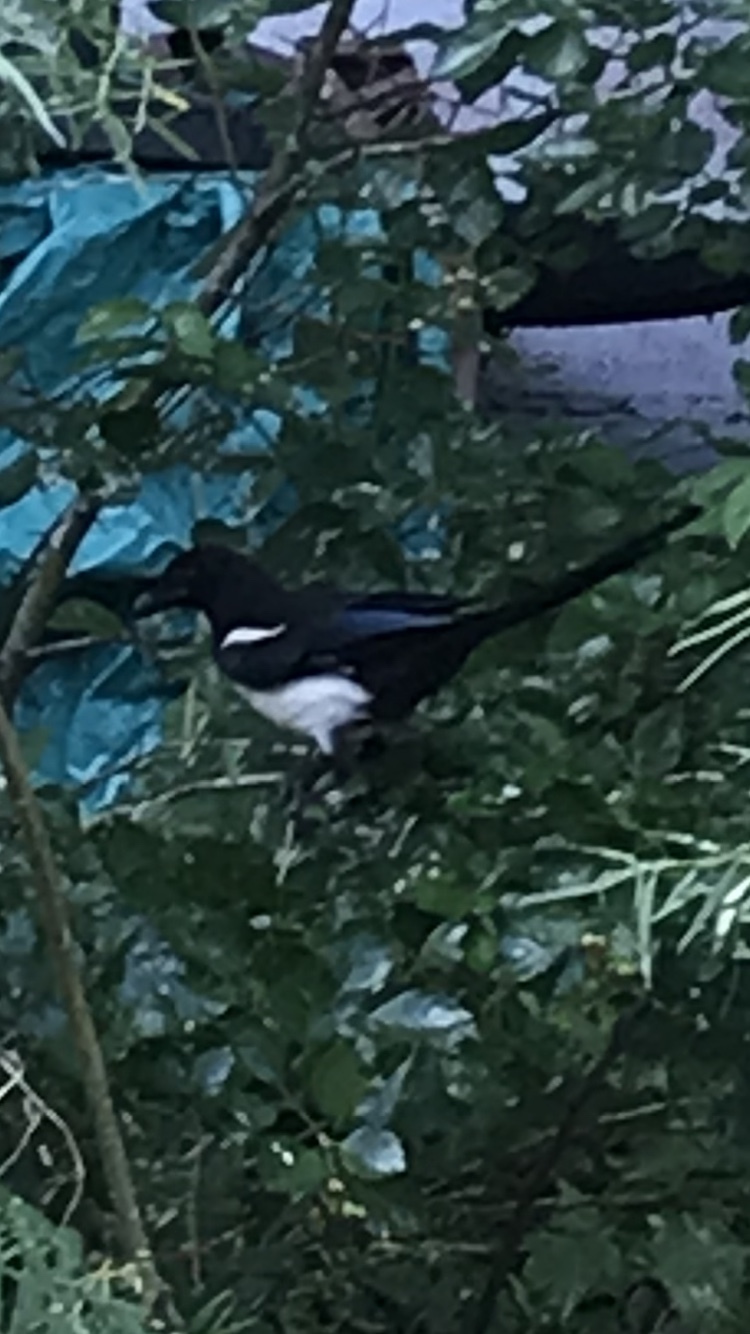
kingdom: Animalia
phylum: Chordata
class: Aves
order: Passeriformes
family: Corvidae
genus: Pica
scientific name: Pica hudsonia
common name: Black-billed magpie
